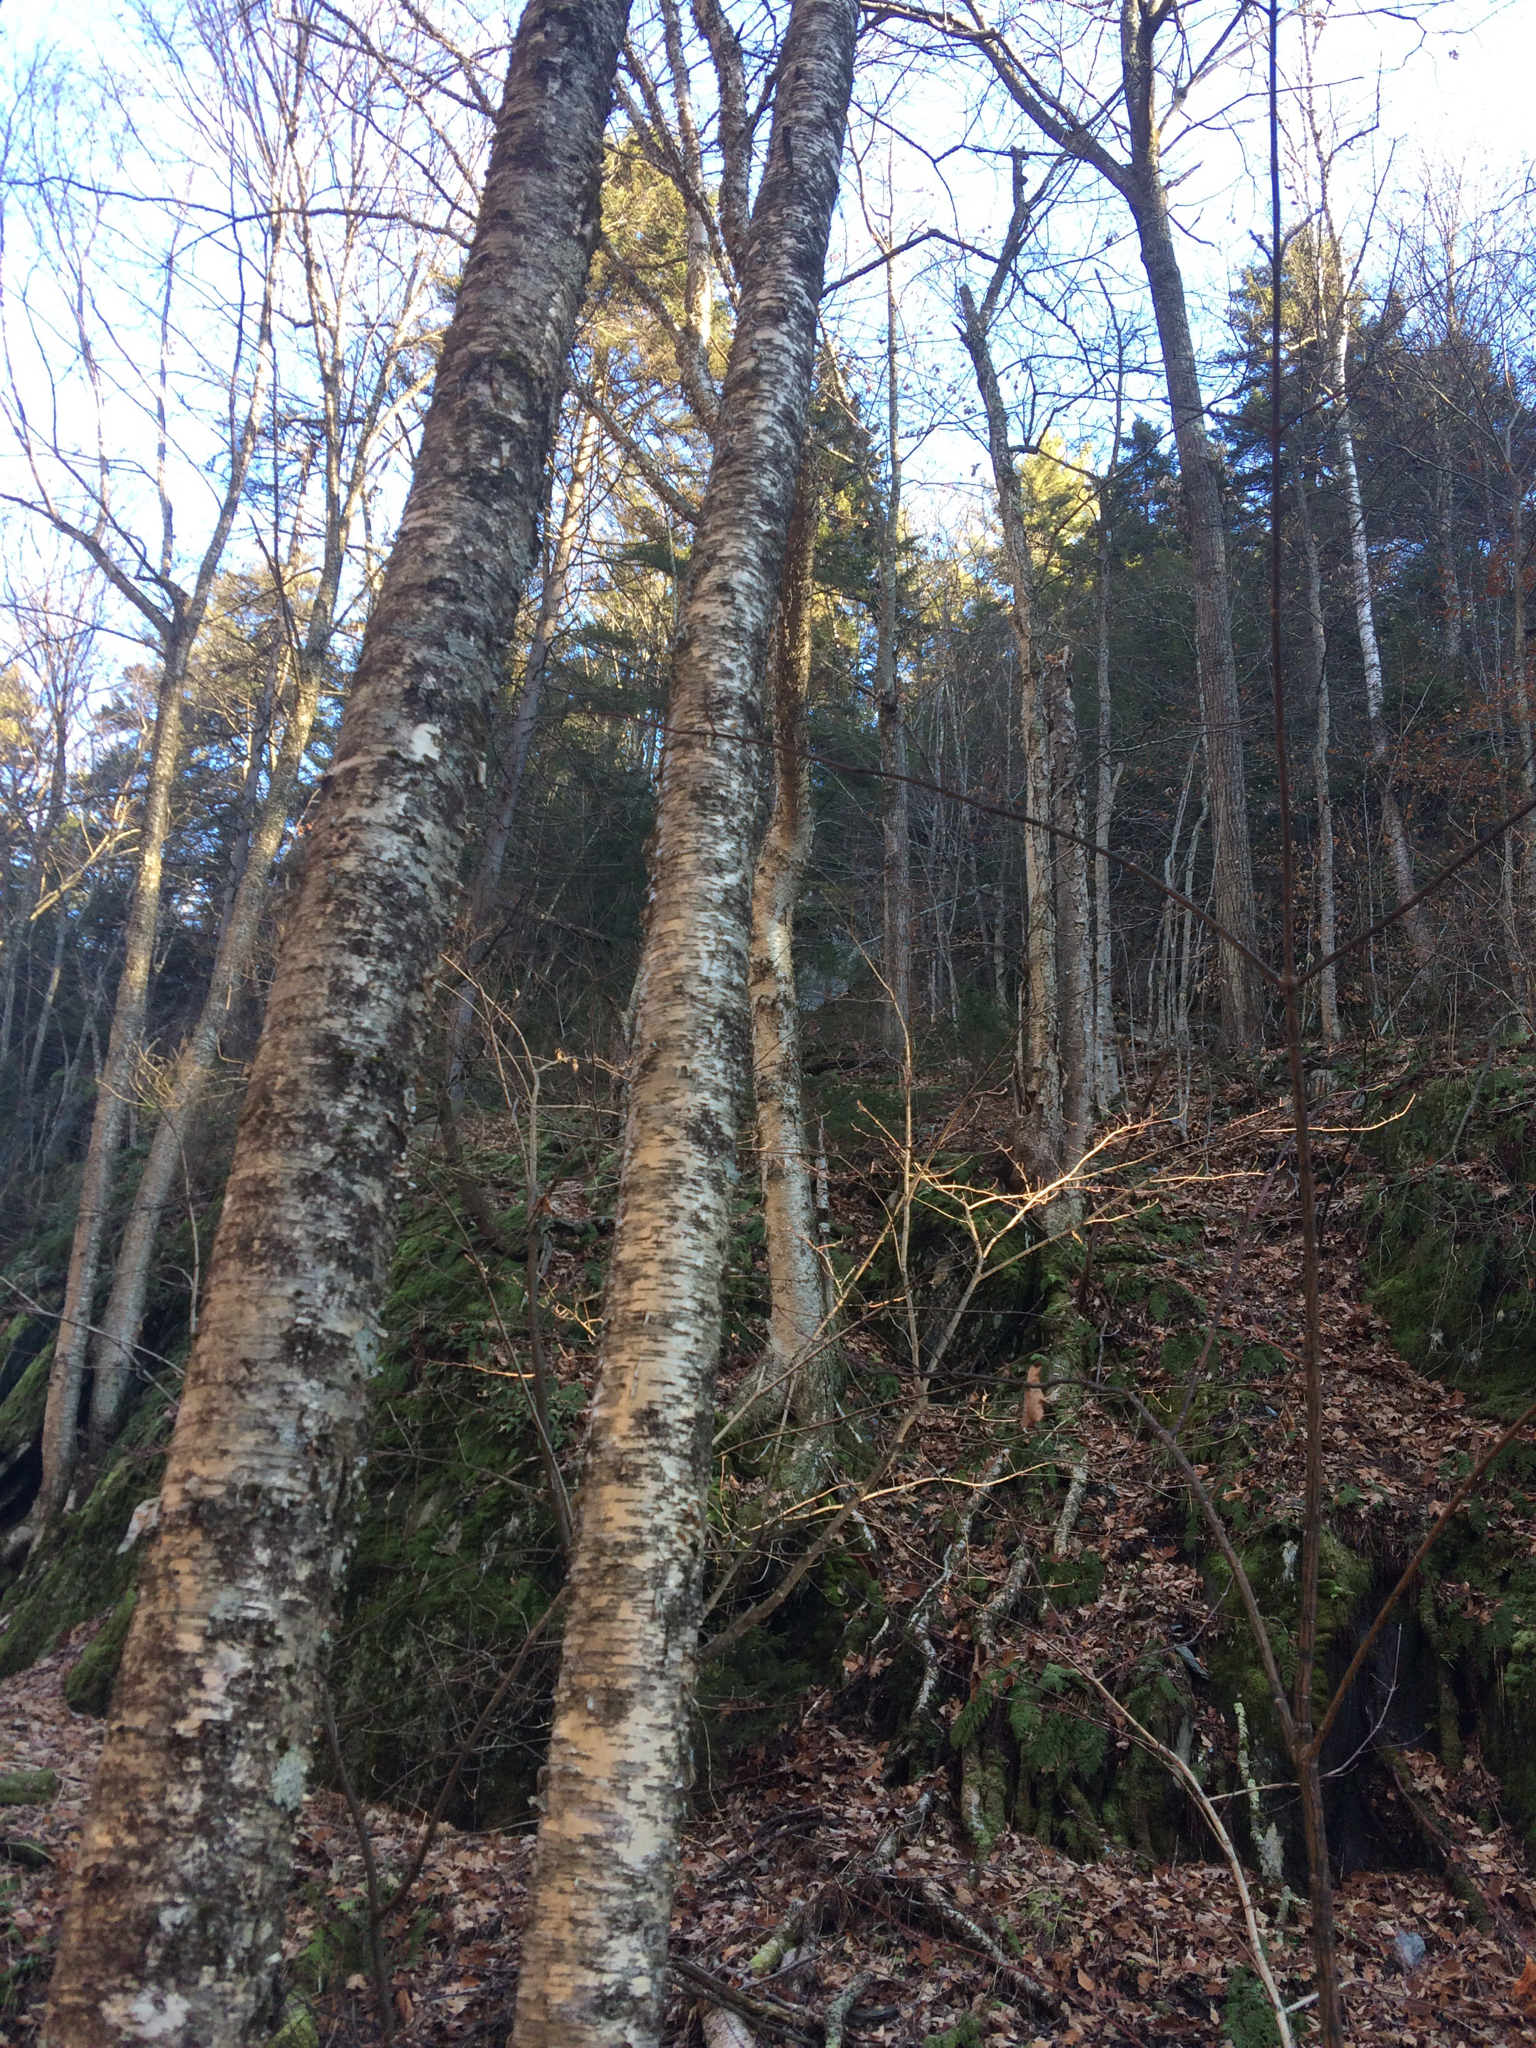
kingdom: Plantae
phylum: Tracheophyta
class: Magnoliopsida
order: Fagales
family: Betulaceae
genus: Betula
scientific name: Betula alleghaniensis
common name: Yellow birch
